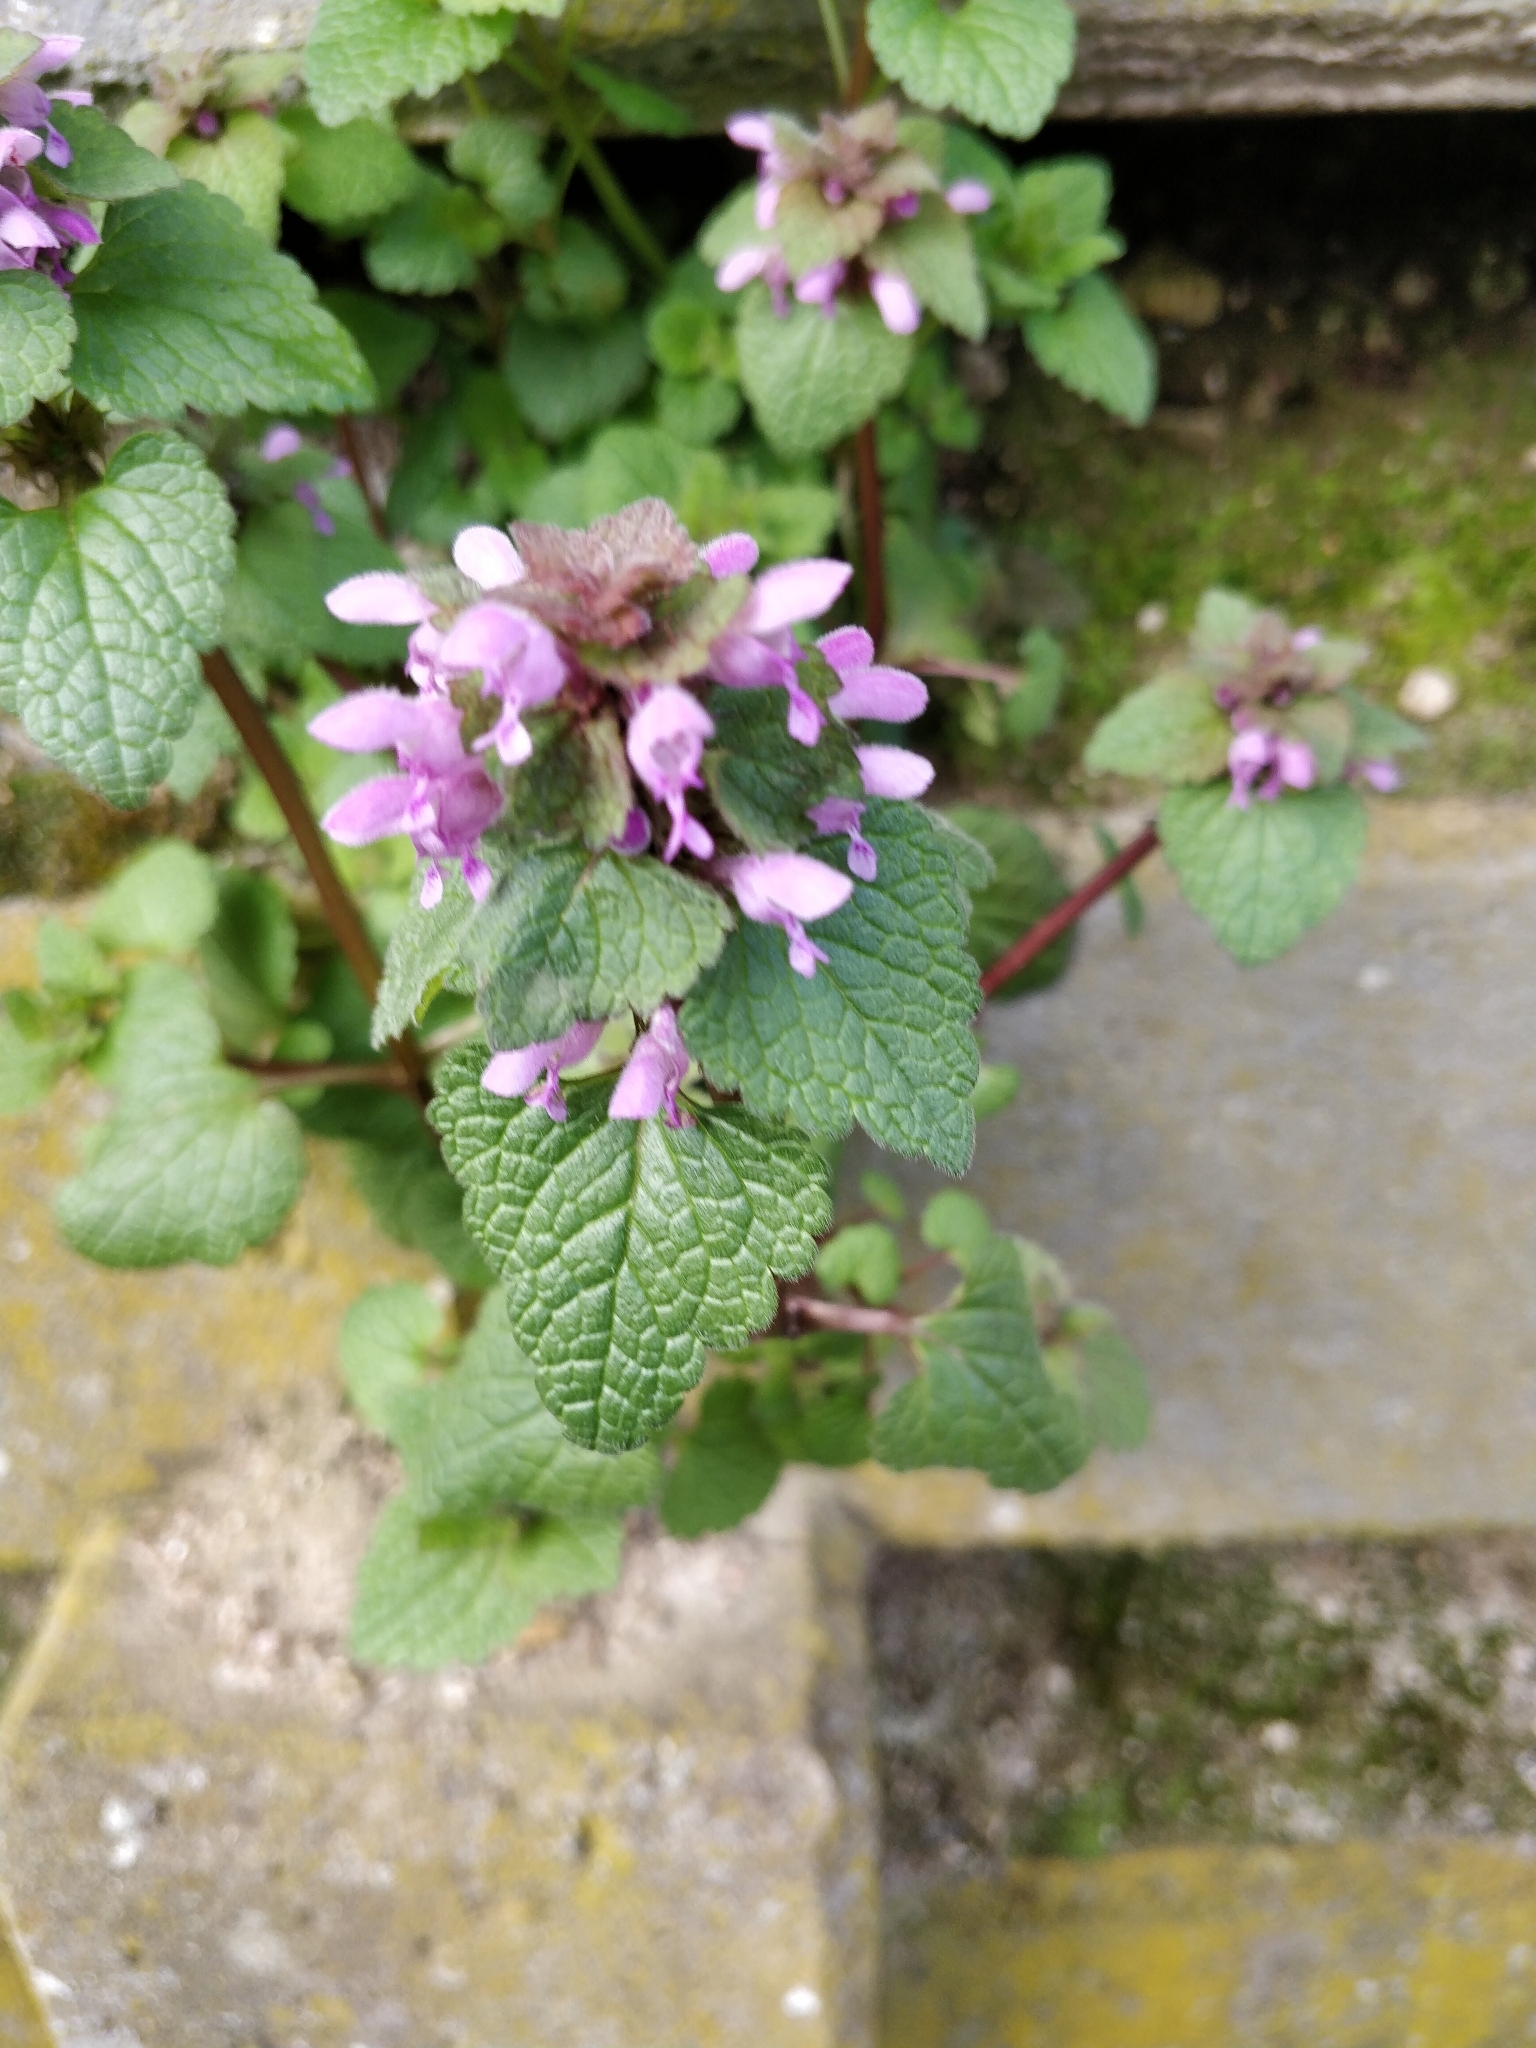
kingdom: Plantae
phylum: Tracheophyta
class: Magnoliopsida
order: Lamiales
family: Lamiaceae
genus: Lamium
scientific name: Lamium purpureum
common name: Red dead-nettle
